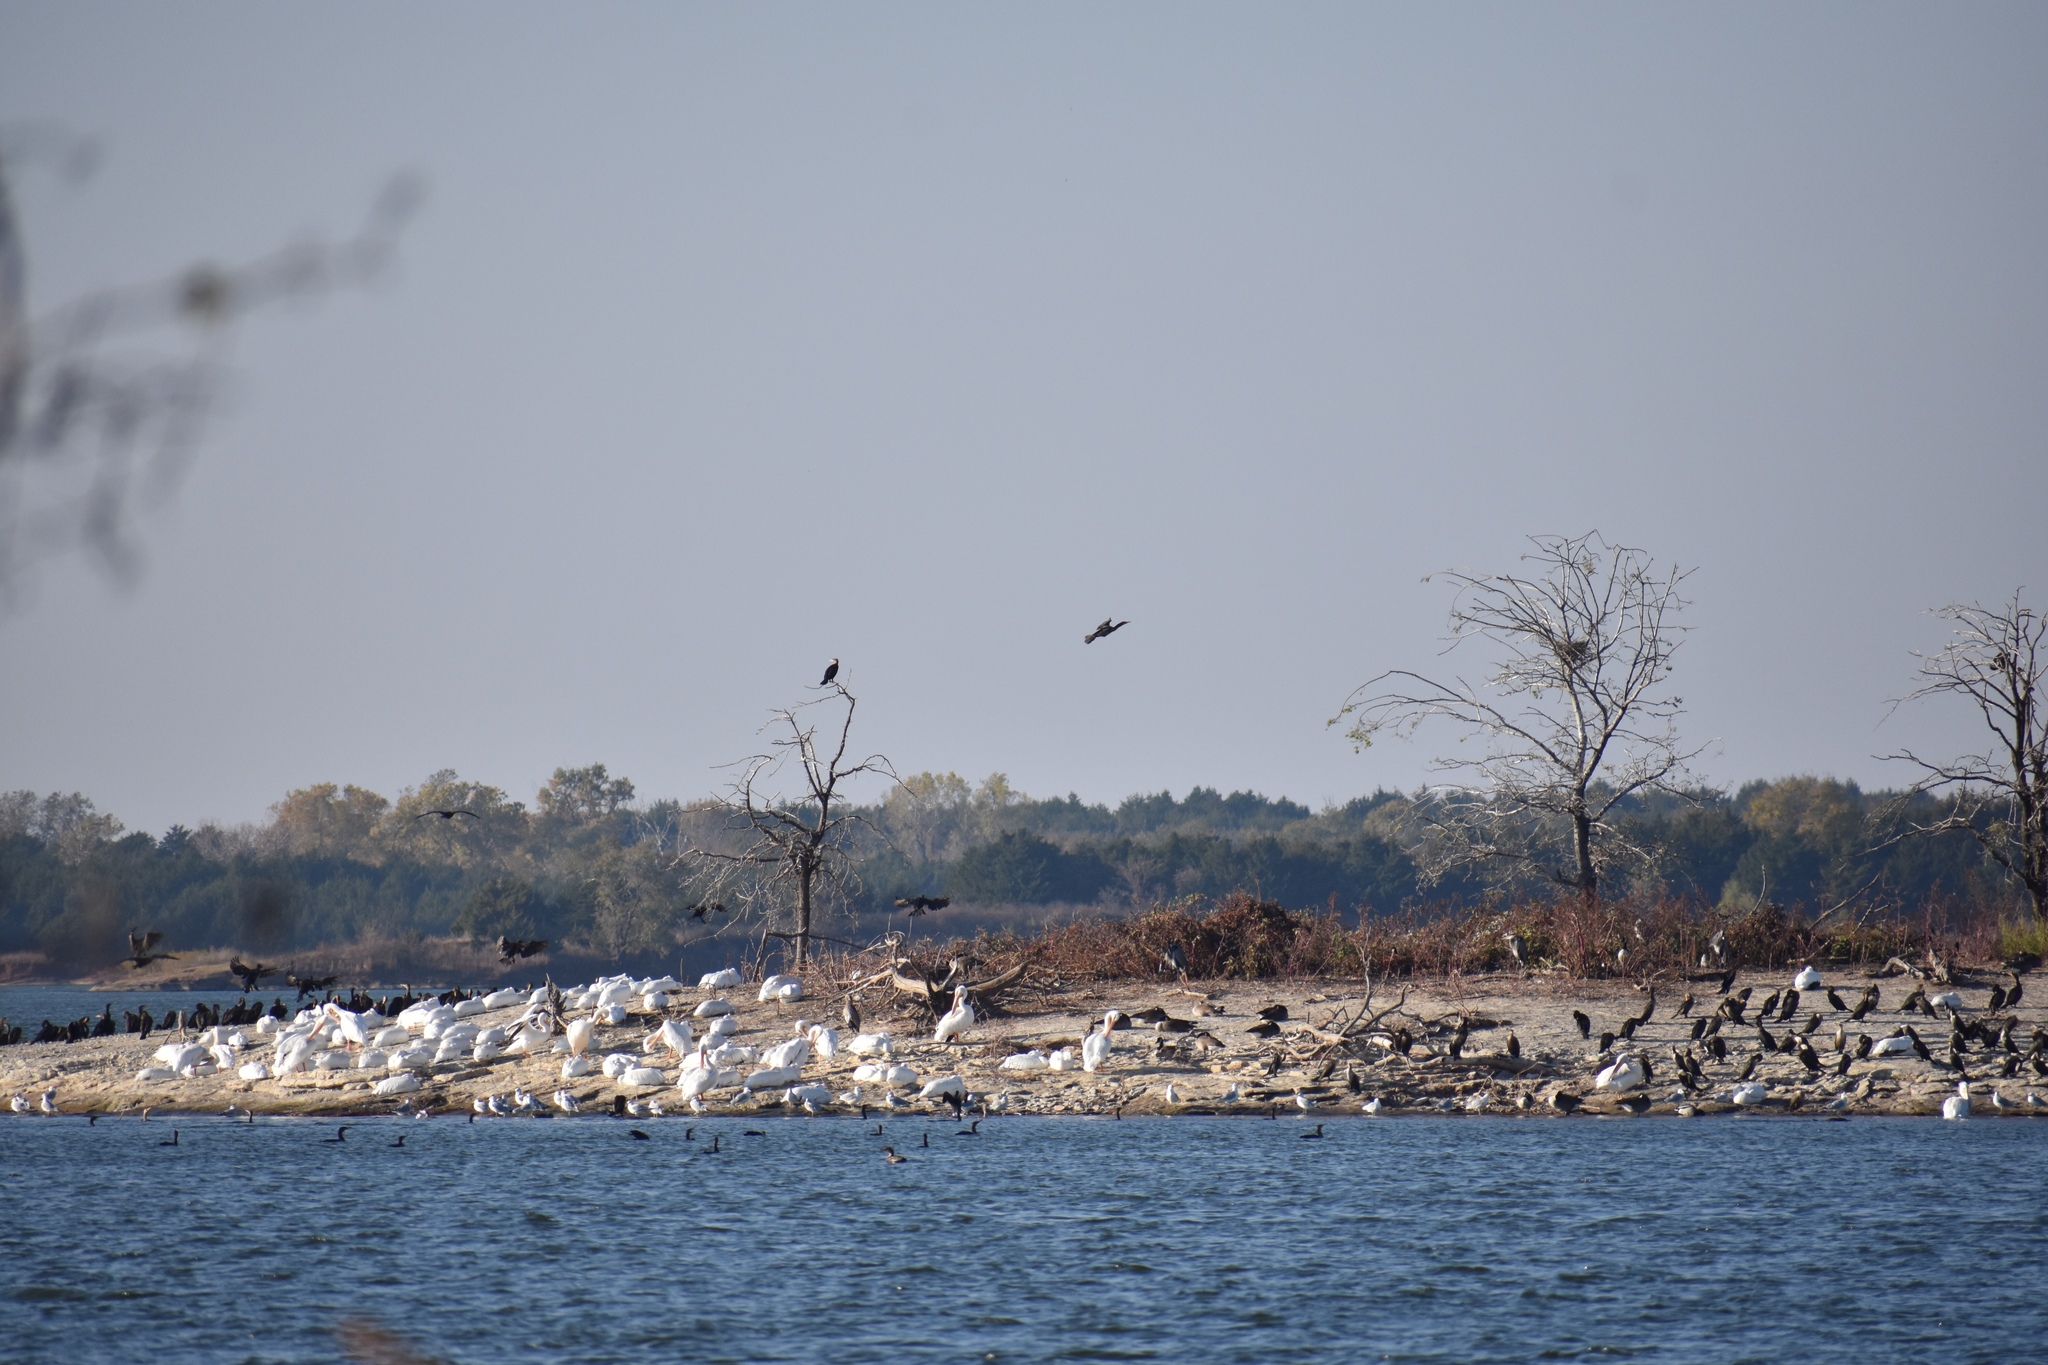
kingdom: Animalia
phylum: Chordata
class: Aves
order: Pelecaniformes
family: Pelecanidae
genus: Pelecanus
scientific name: Pelecanus erythrorhynchos
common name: American white pelican
